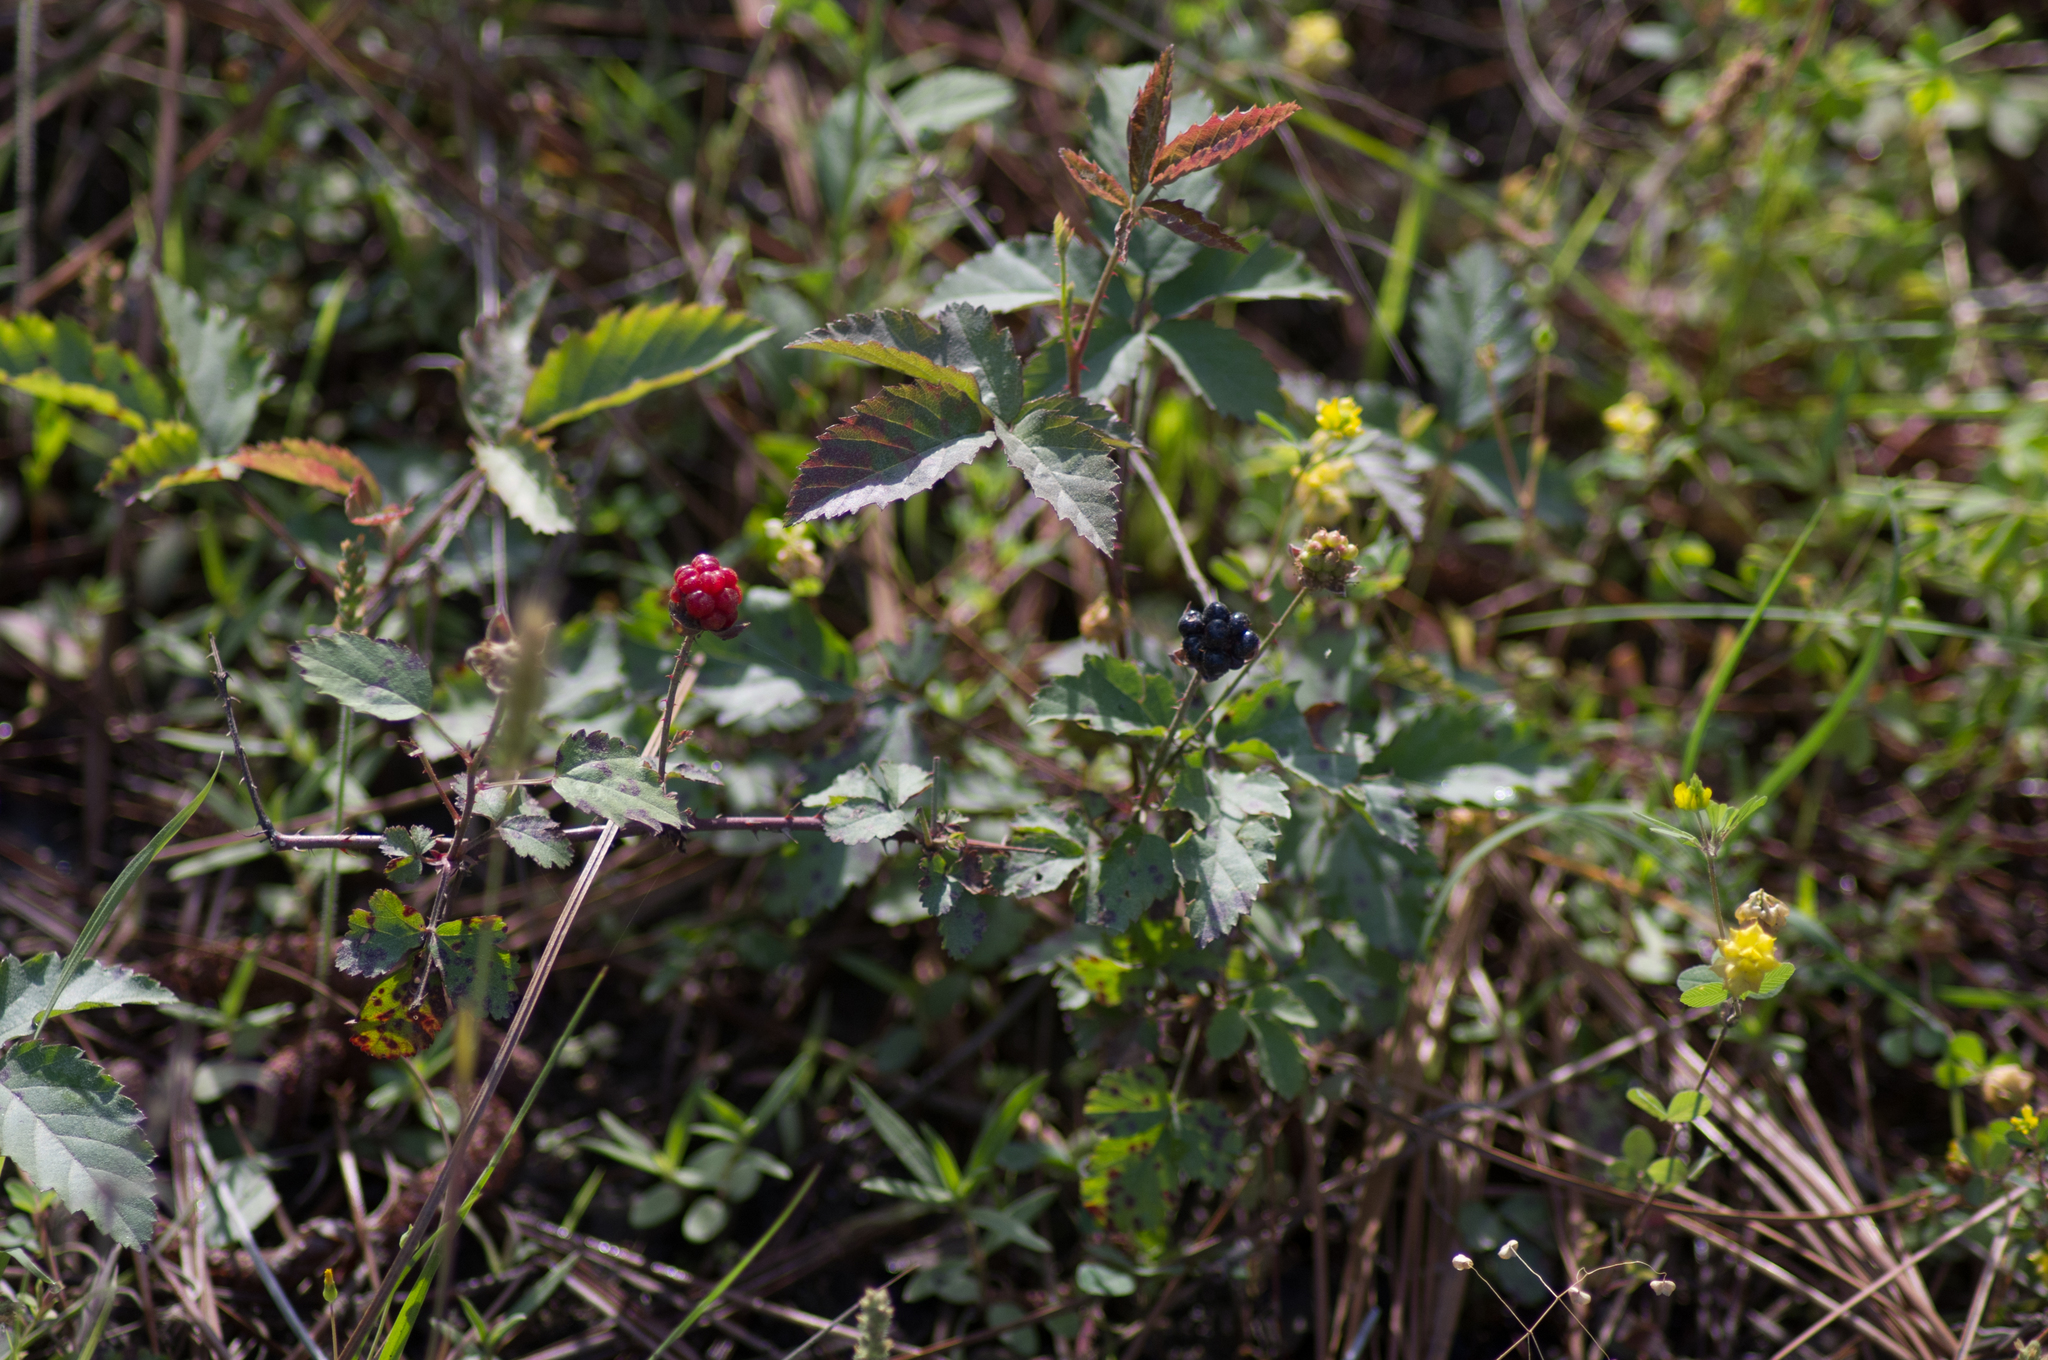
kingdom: Plantae
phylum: Tracheophyta
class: Magnoliopsida
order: Rosales
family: Rosaceae
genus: Rubus
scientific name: Rubus trivialis
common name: Southern dewberry
